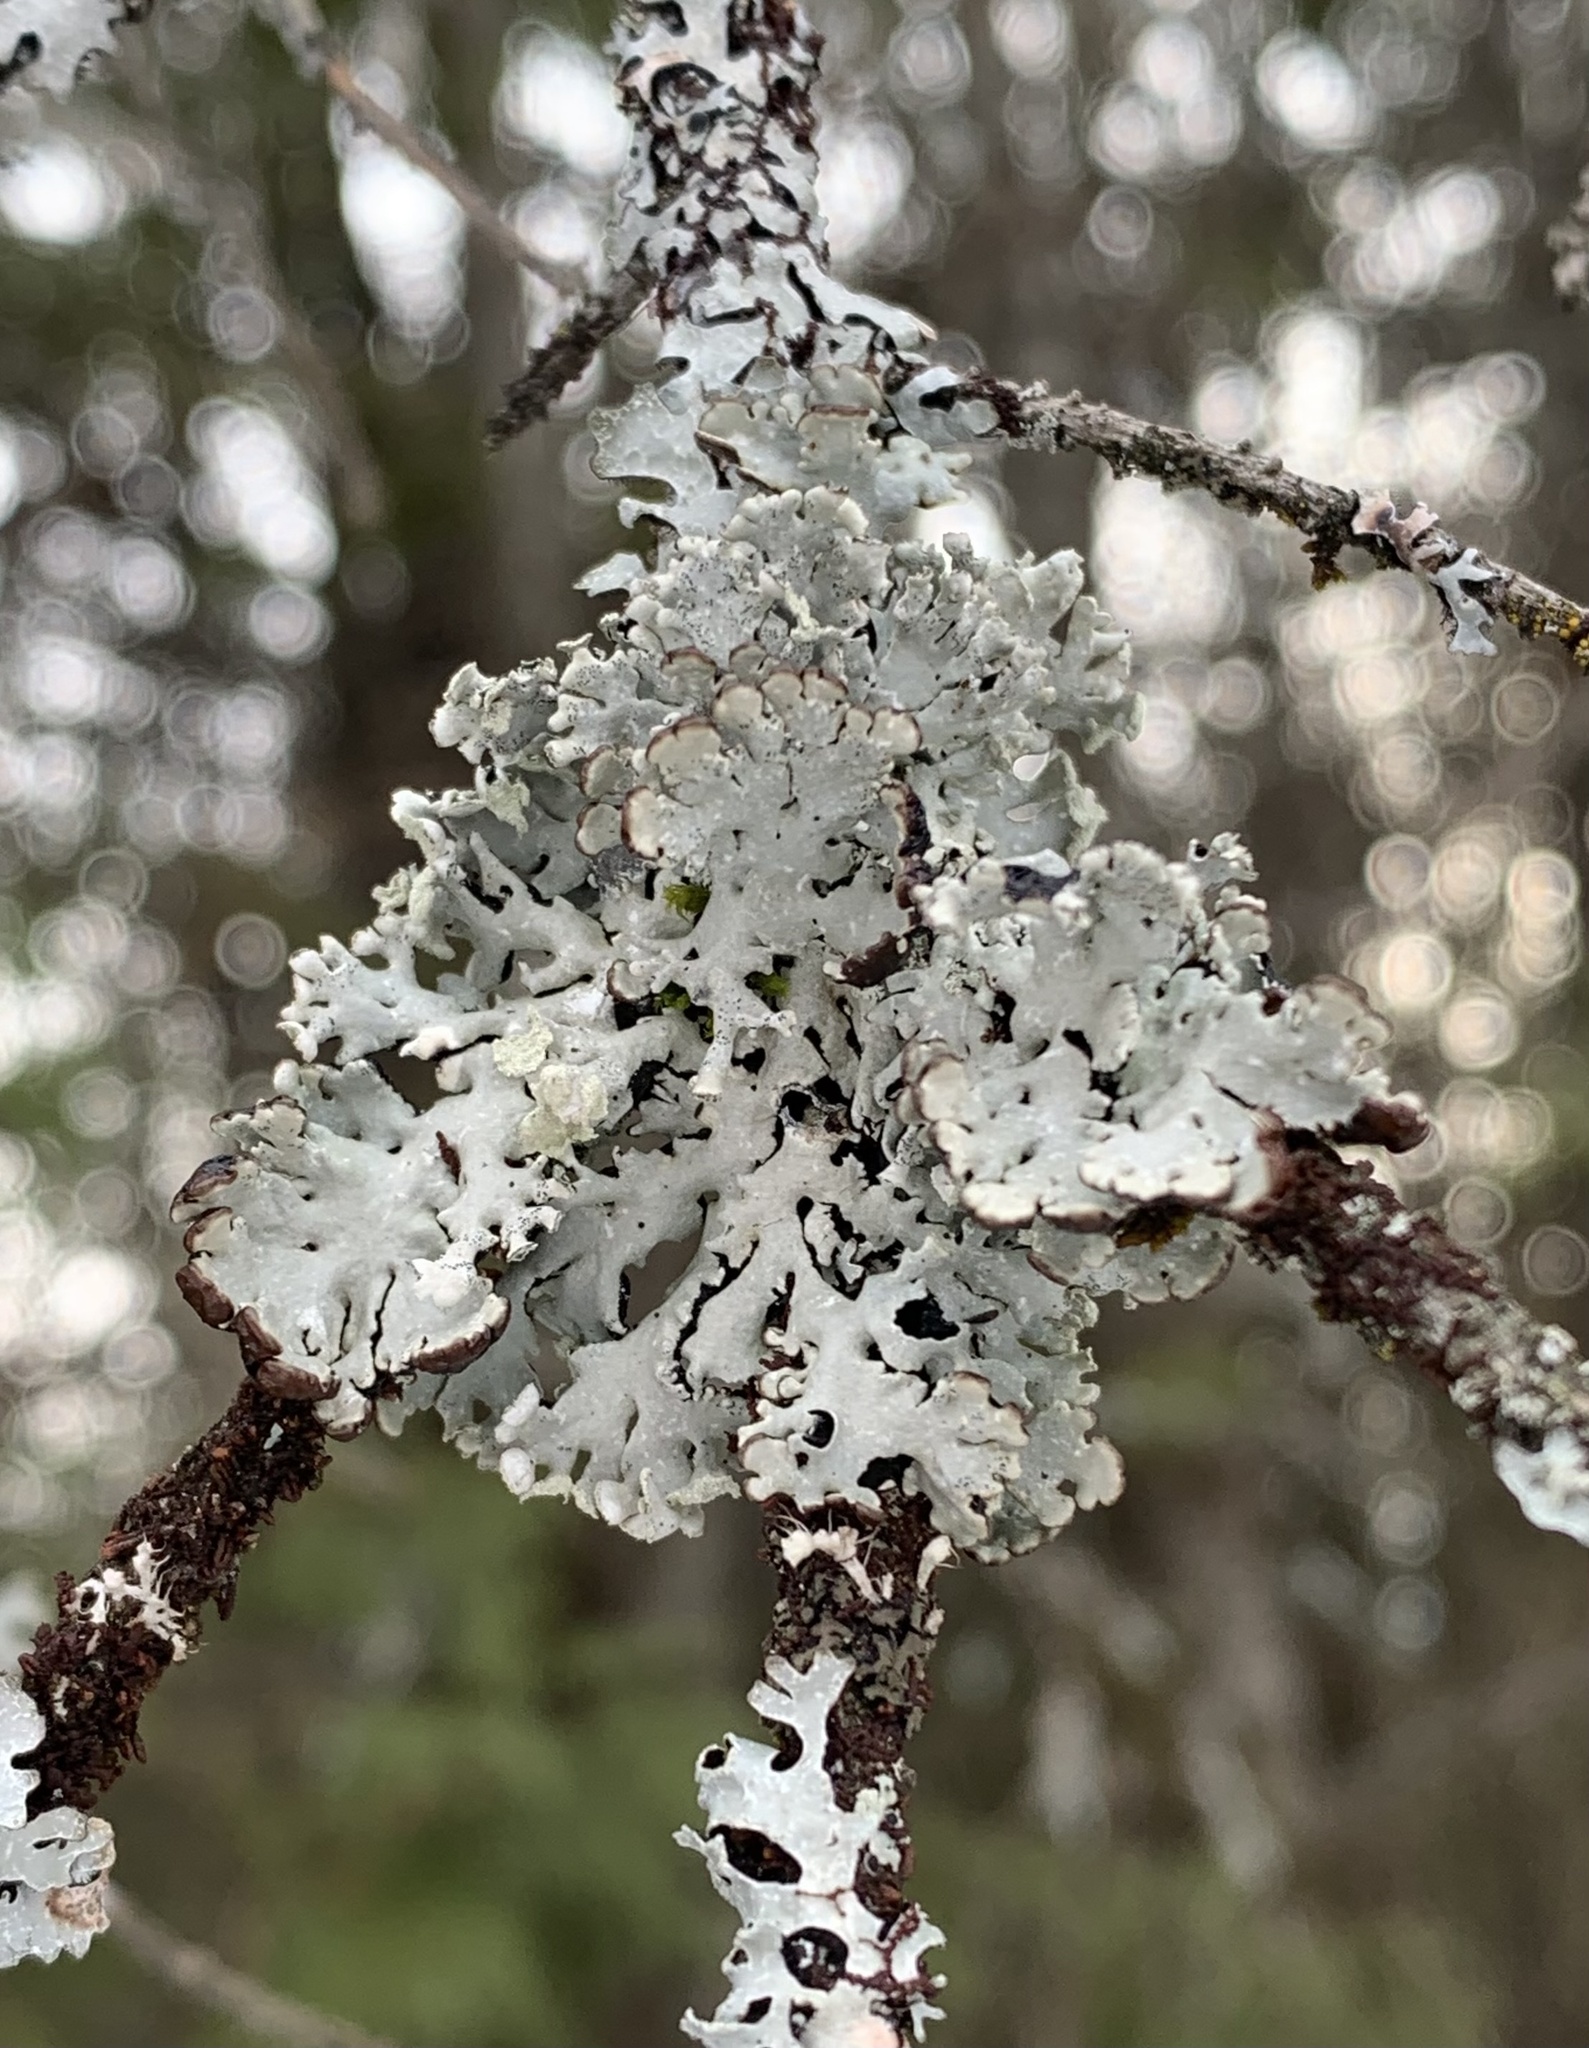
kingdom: Fungi
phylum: Ascomycota
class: Lecanoromycetes
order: Lecanorales
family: Parmeliaceae
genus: Hypogymnia
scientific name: Hypogymnia physodes
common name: Dark crottle
